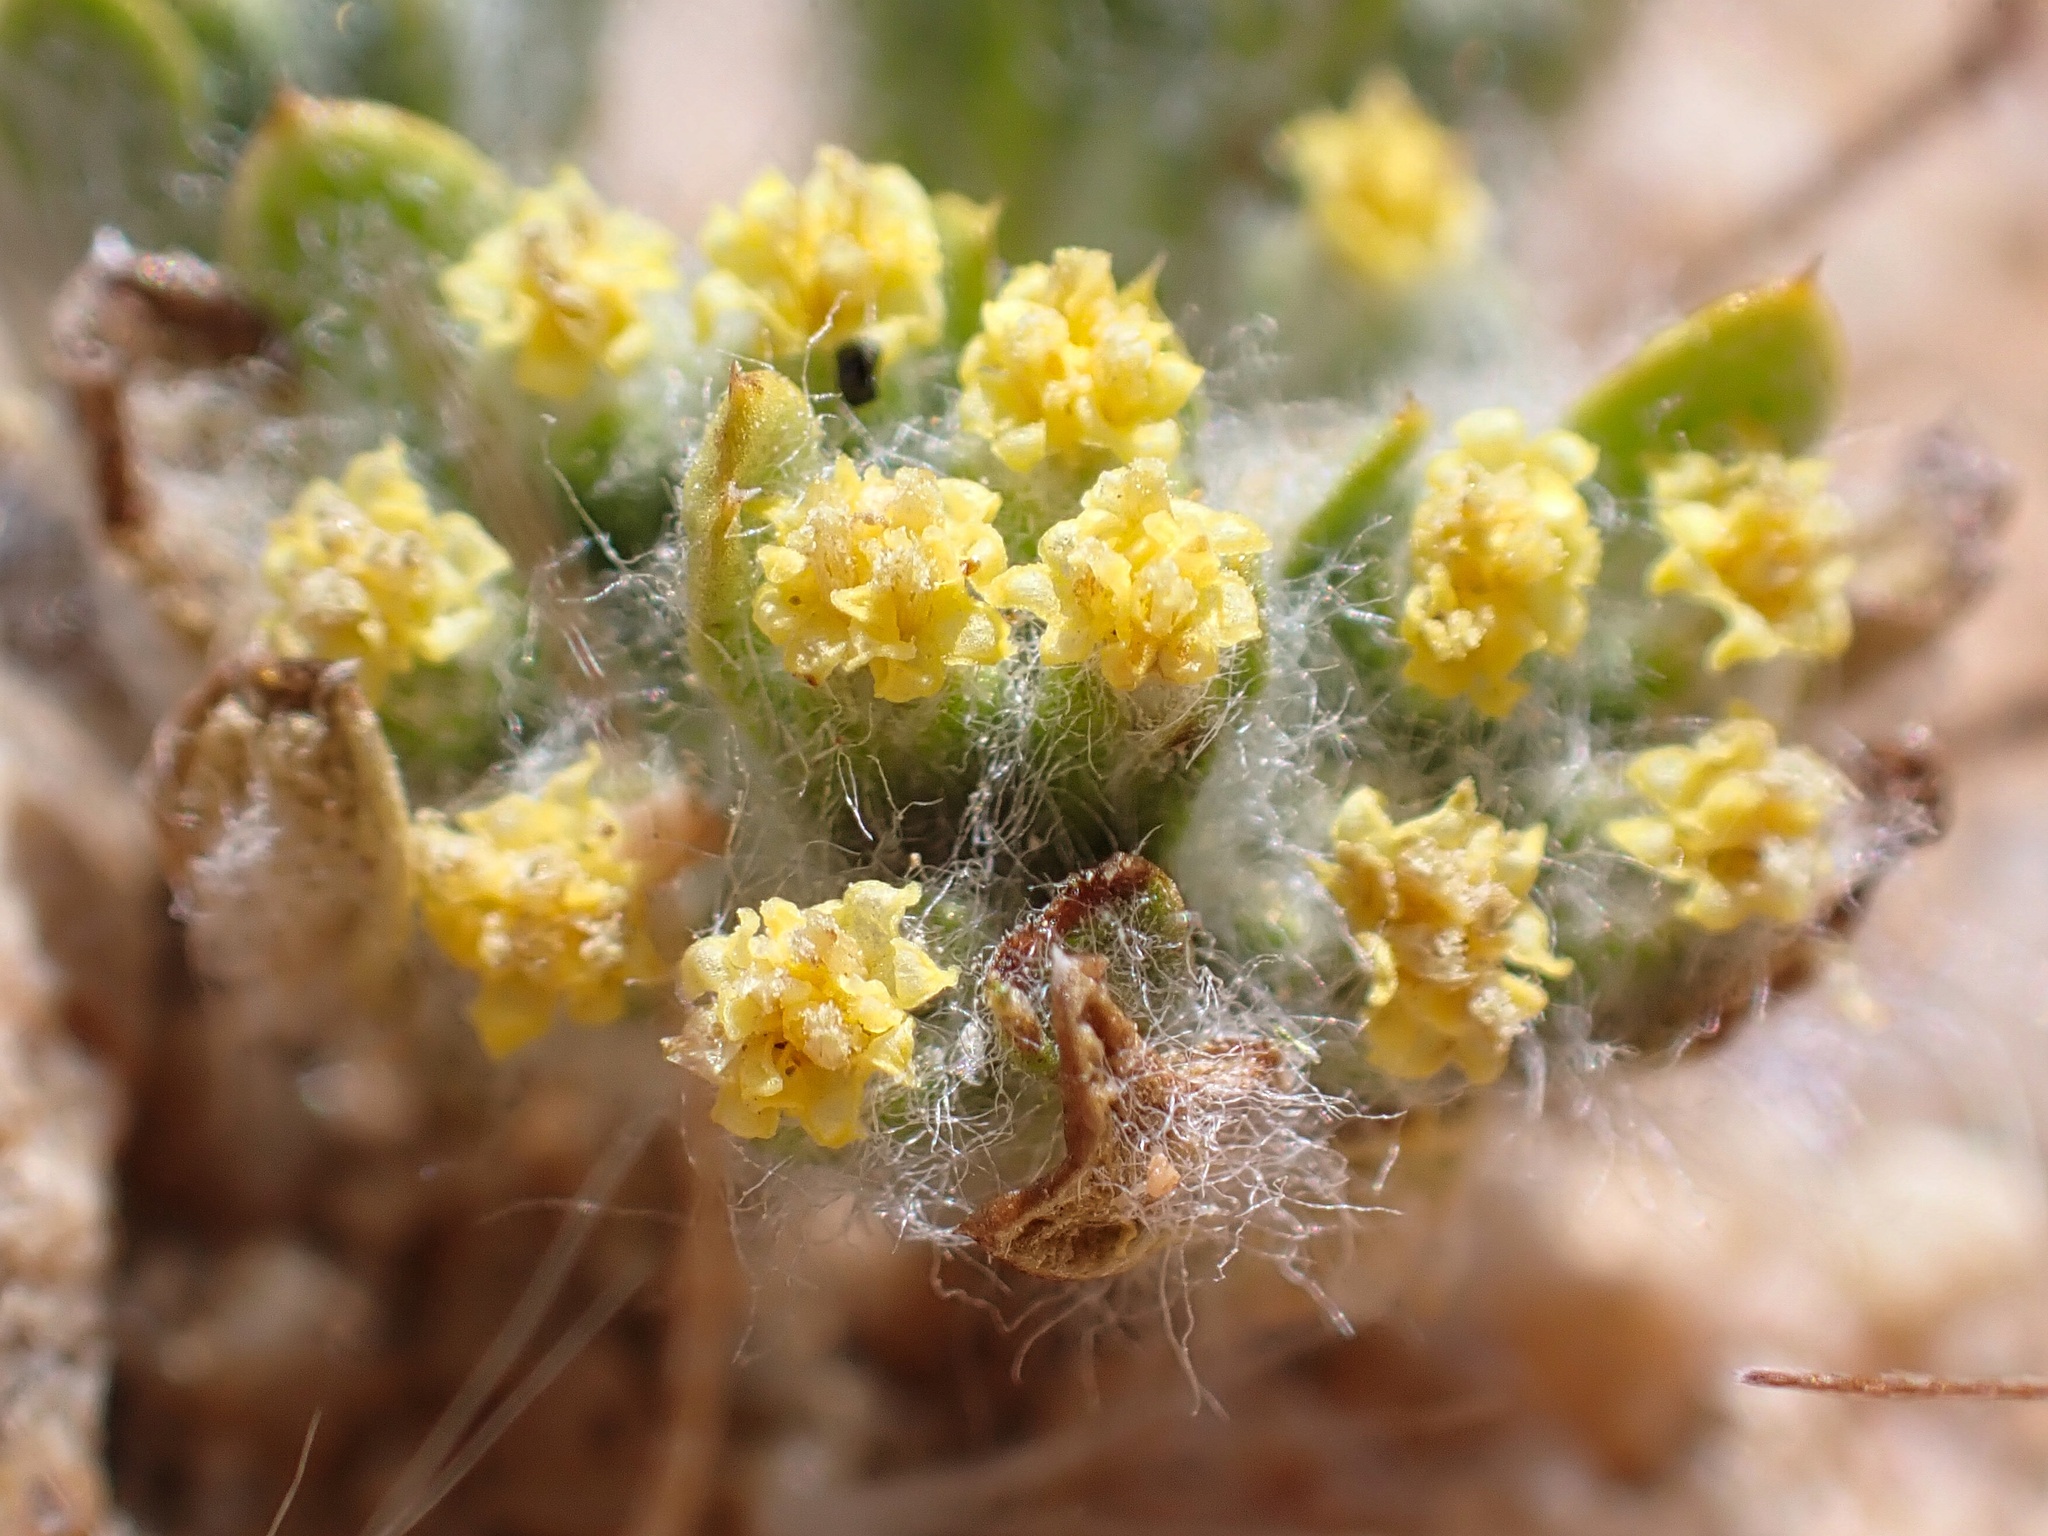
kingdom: Plantae
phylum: Tracheophyta
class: Magnoliopsida
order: Asterales
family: Asteraceae
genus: Eriophyllum
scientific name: Eriophyllum mohavense
